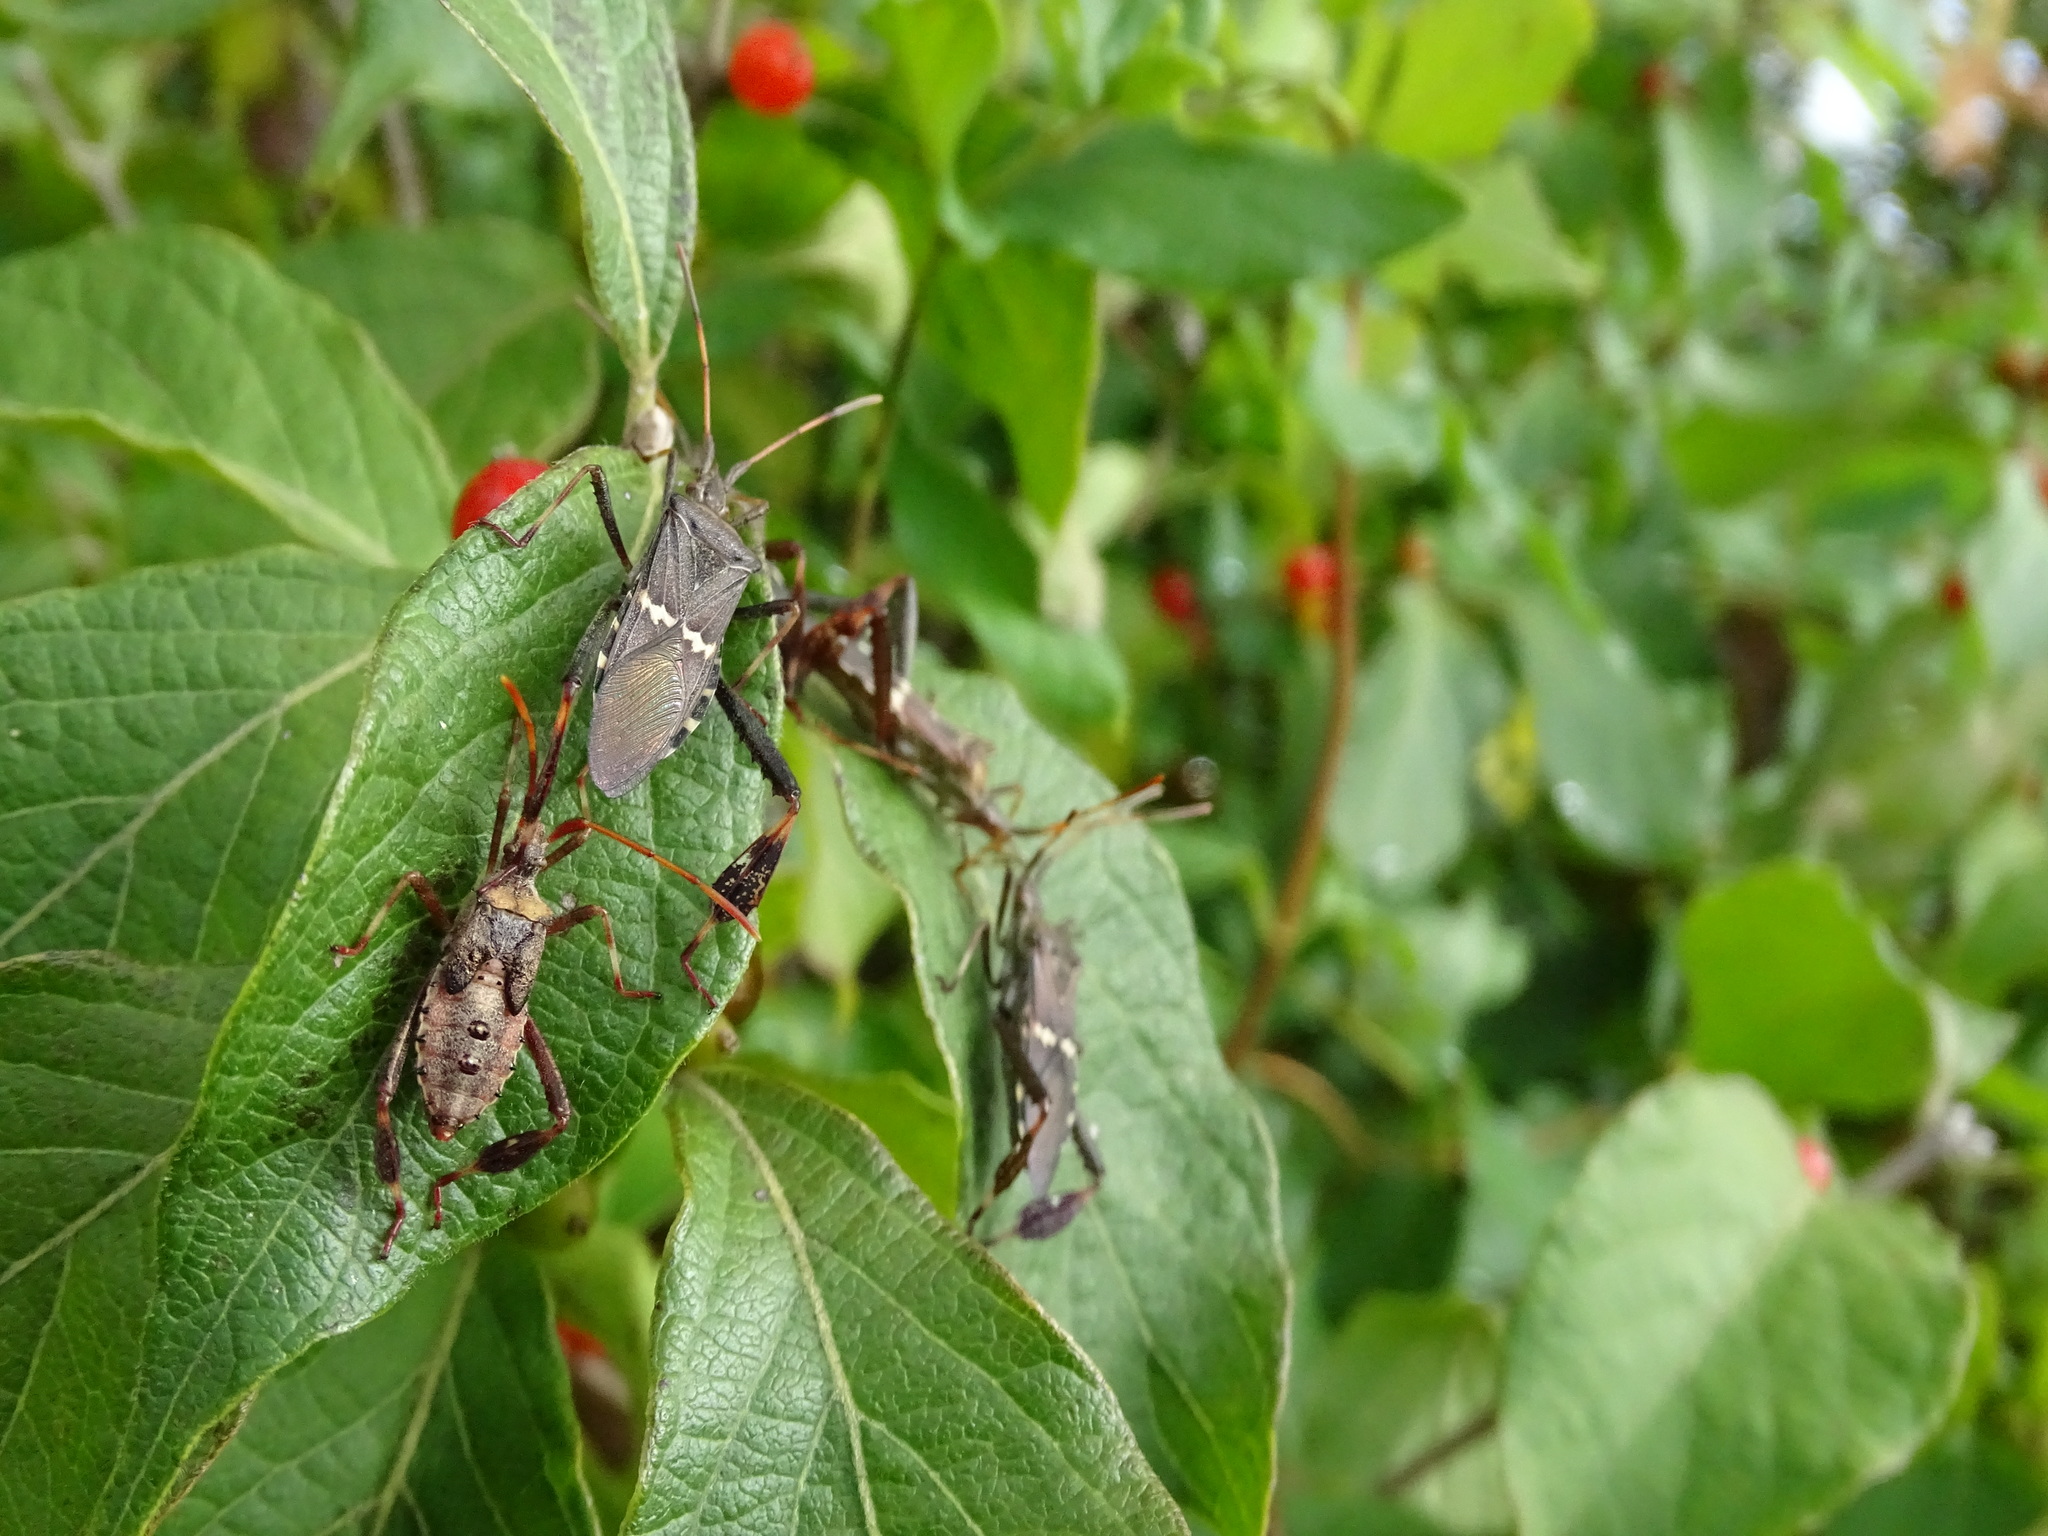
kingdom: Animalia
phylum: Arthropoda
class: Insecta
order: Hemiptera
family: Coreidae
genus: Leptoglossus
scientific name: Leptoglossus clypealis
